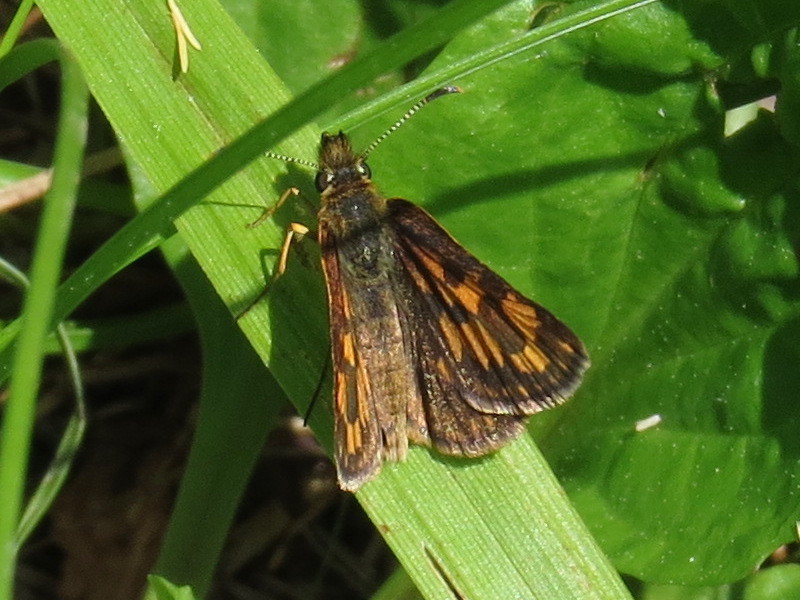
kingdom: Animalia
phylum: Arthropoda
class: Insecta
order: Lepidoptera
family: Hesperiidae
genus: Carterocephalus
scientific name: Carterocephalus mandan
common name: Arctic skipperling
